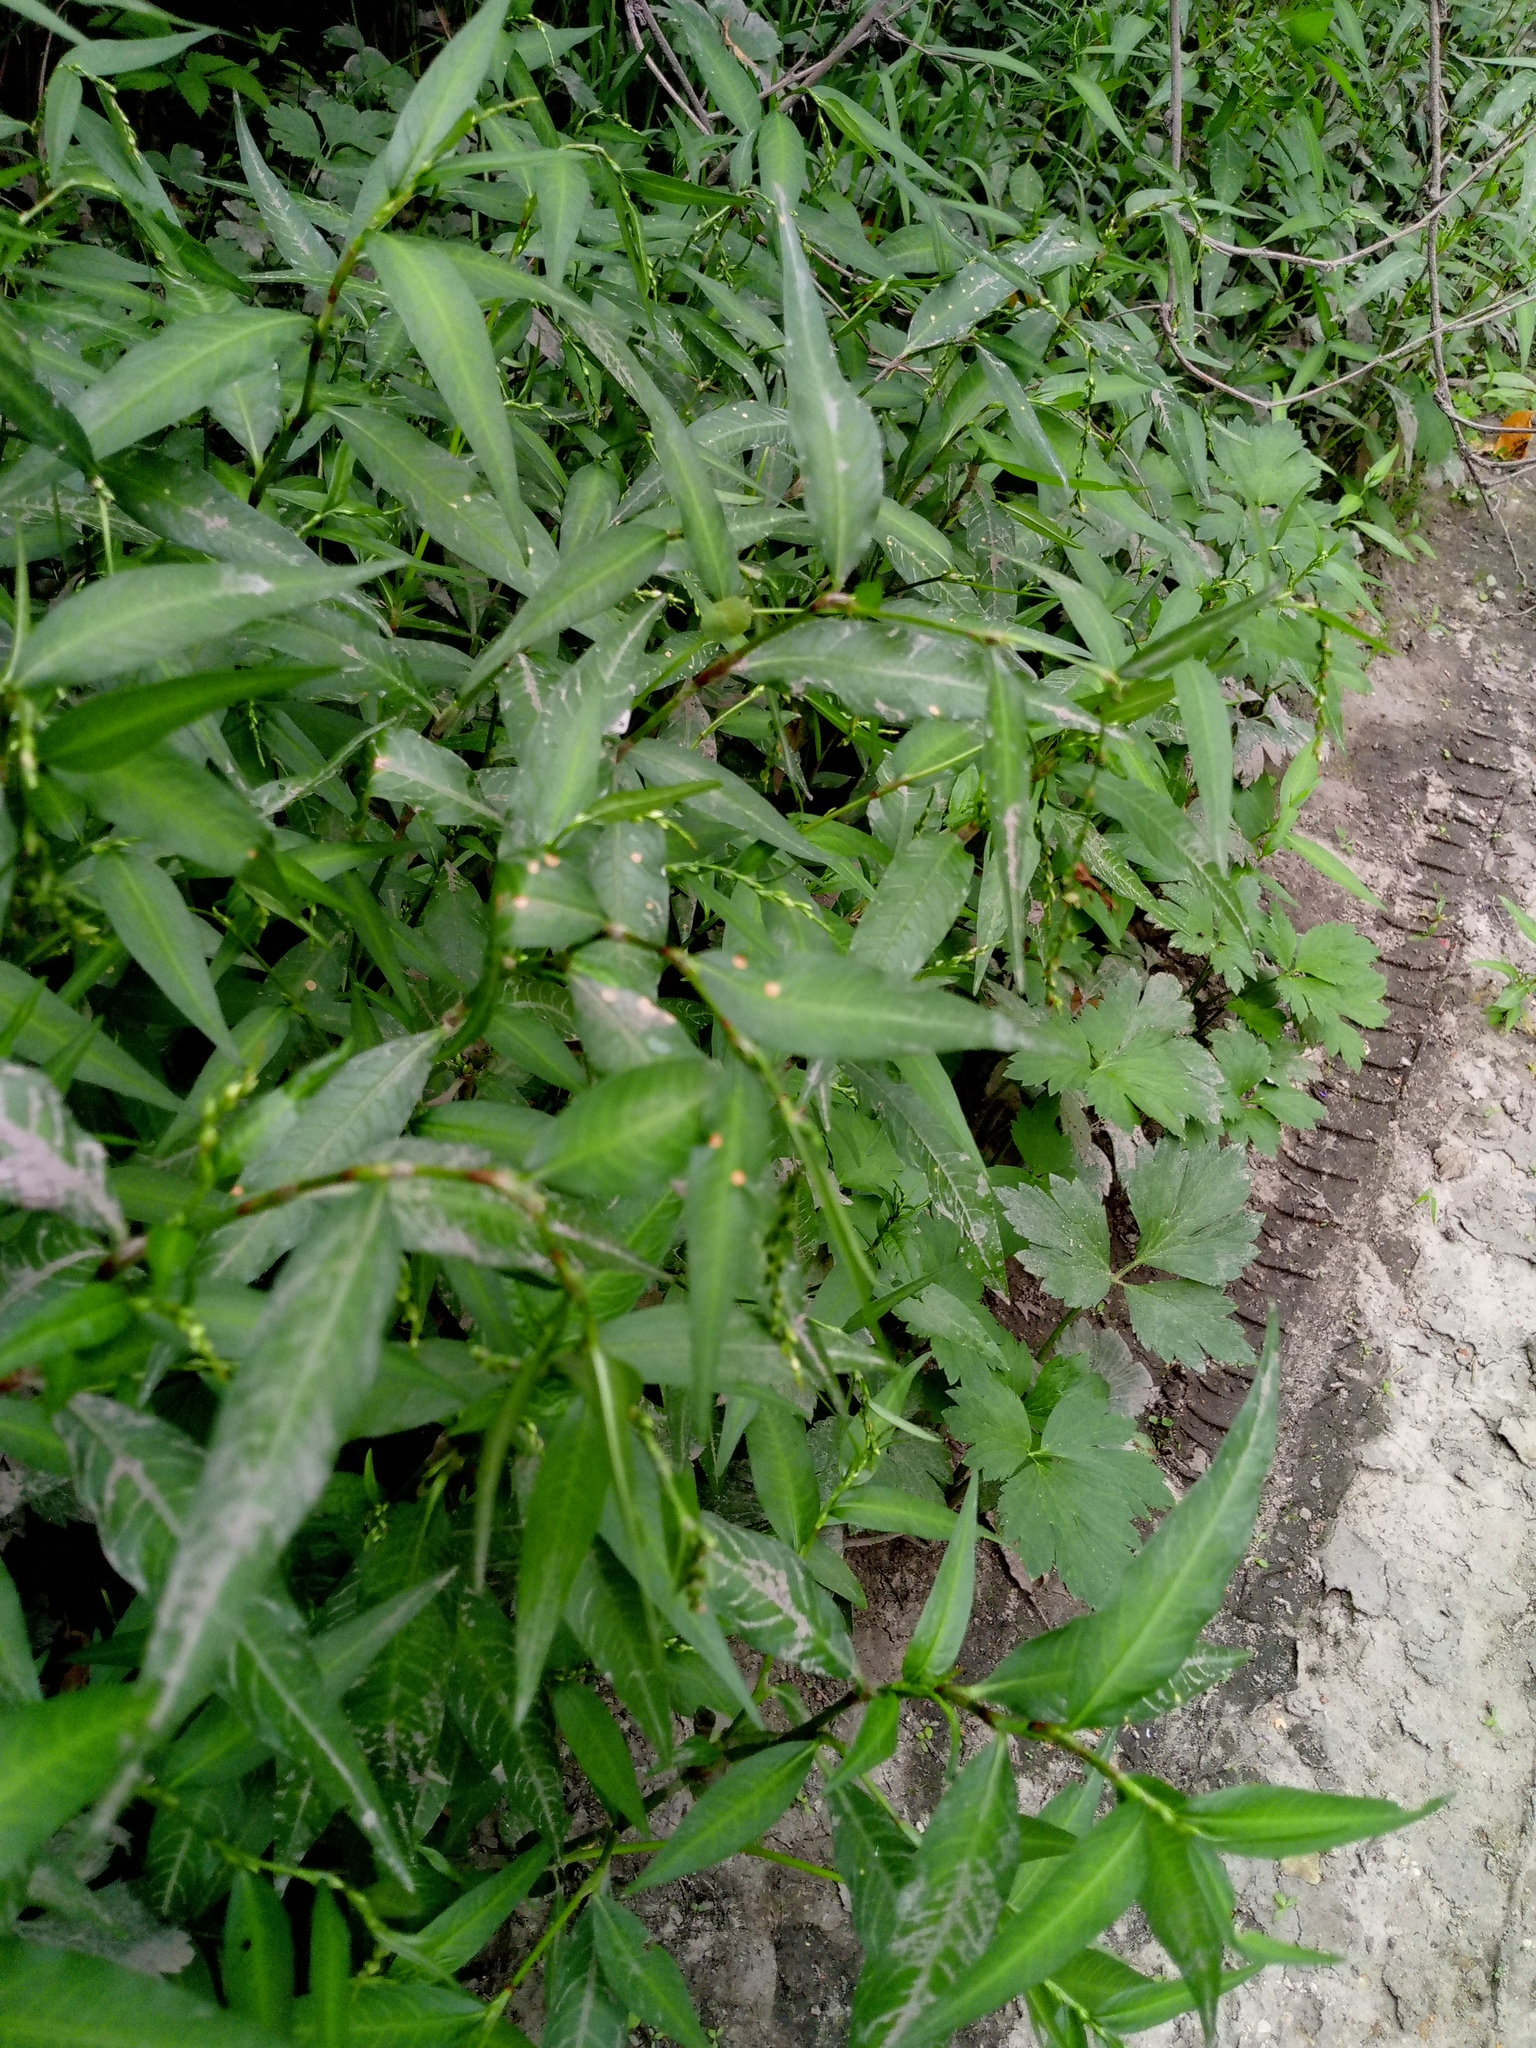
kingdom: Plantae
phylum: Tracheophyta
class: Magnoliopsida
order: Caryophyllales
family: Polygonaceae
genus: Persicaria
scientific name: Persicaria hydropiper
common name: Water-pepper
